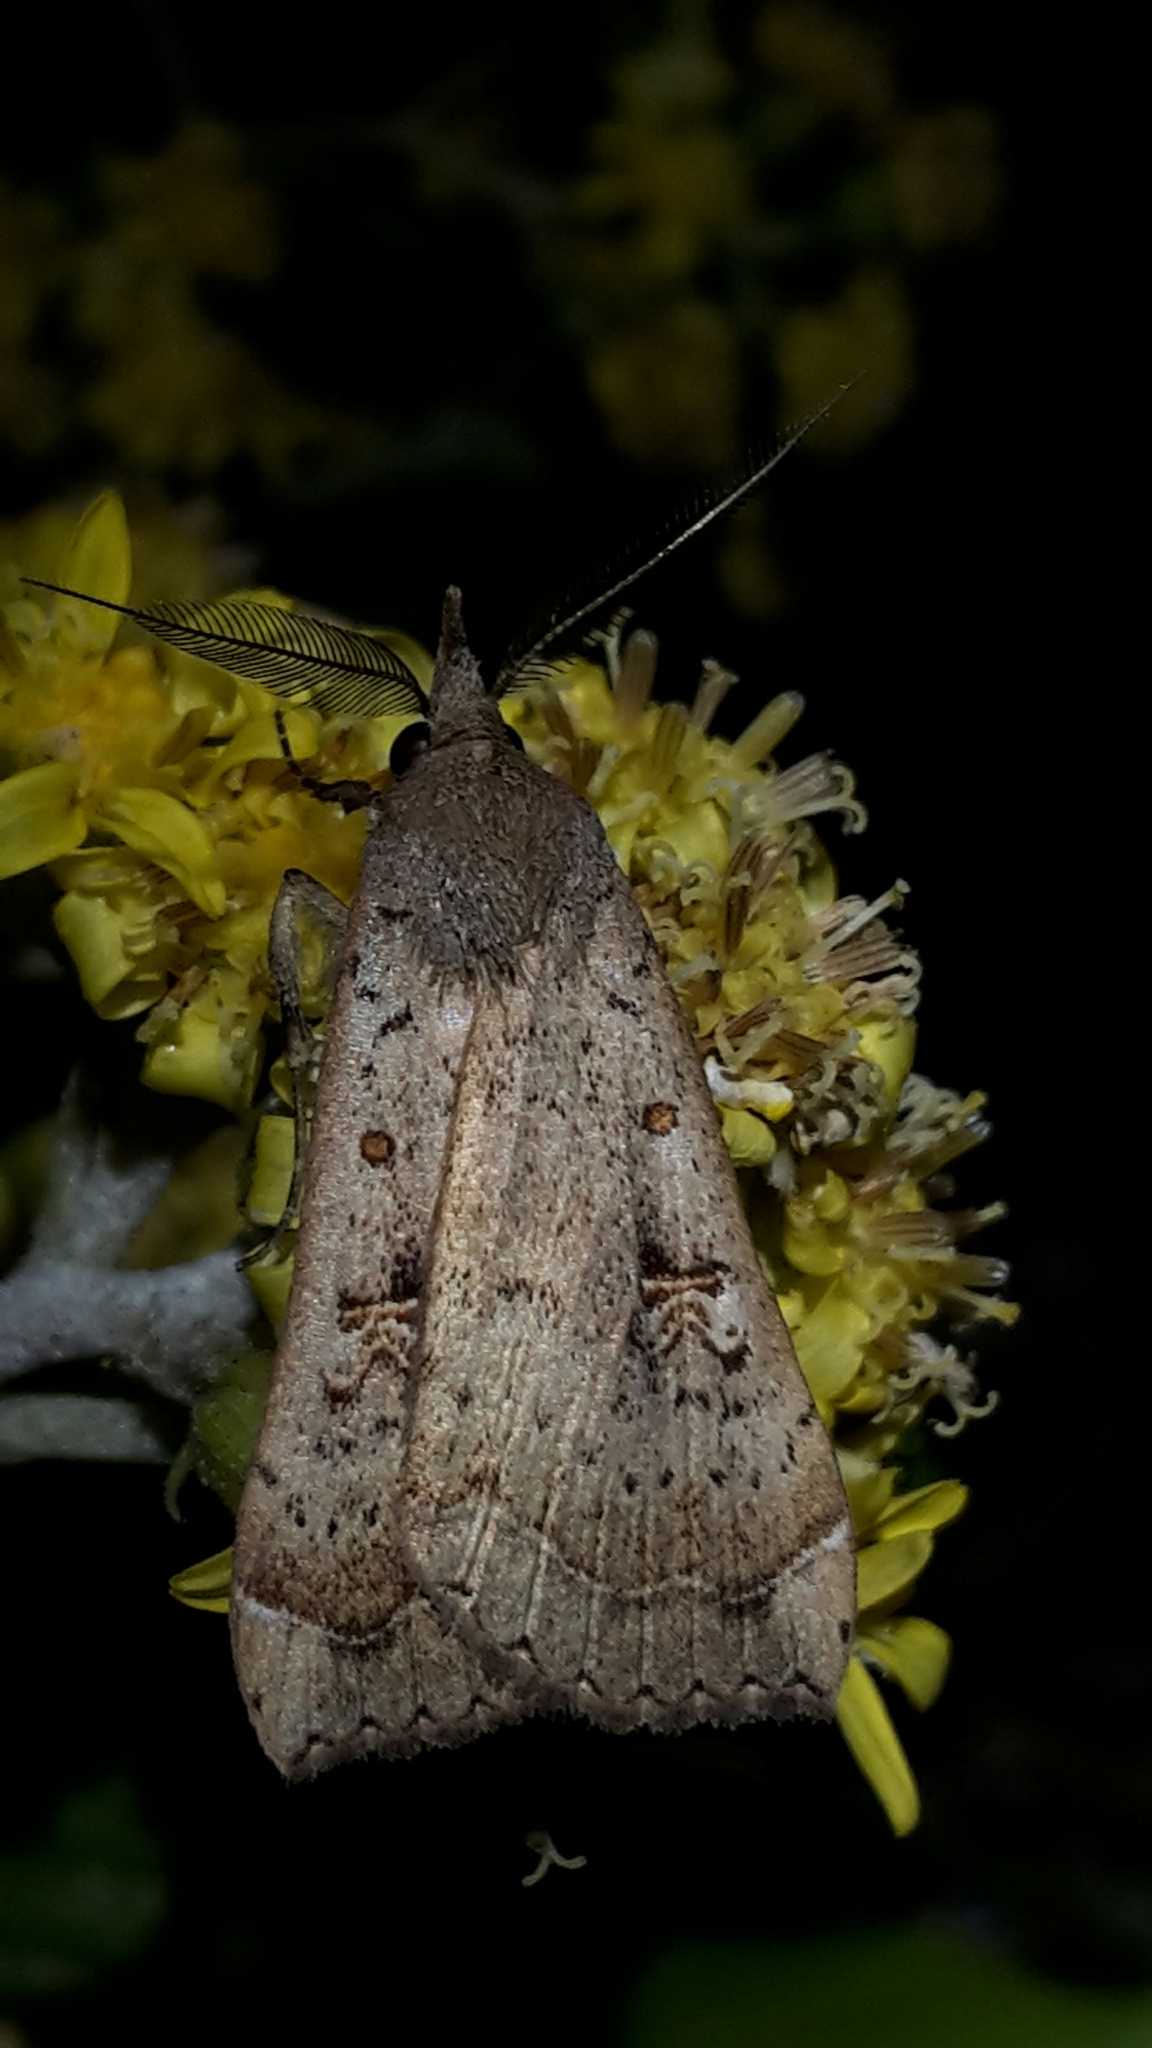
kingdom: Animalia
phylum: Arthropoda
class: Insecta
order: Lepidoptera
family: Erebidae
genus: Rhapsa
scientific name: Rhapsa scotosialis
